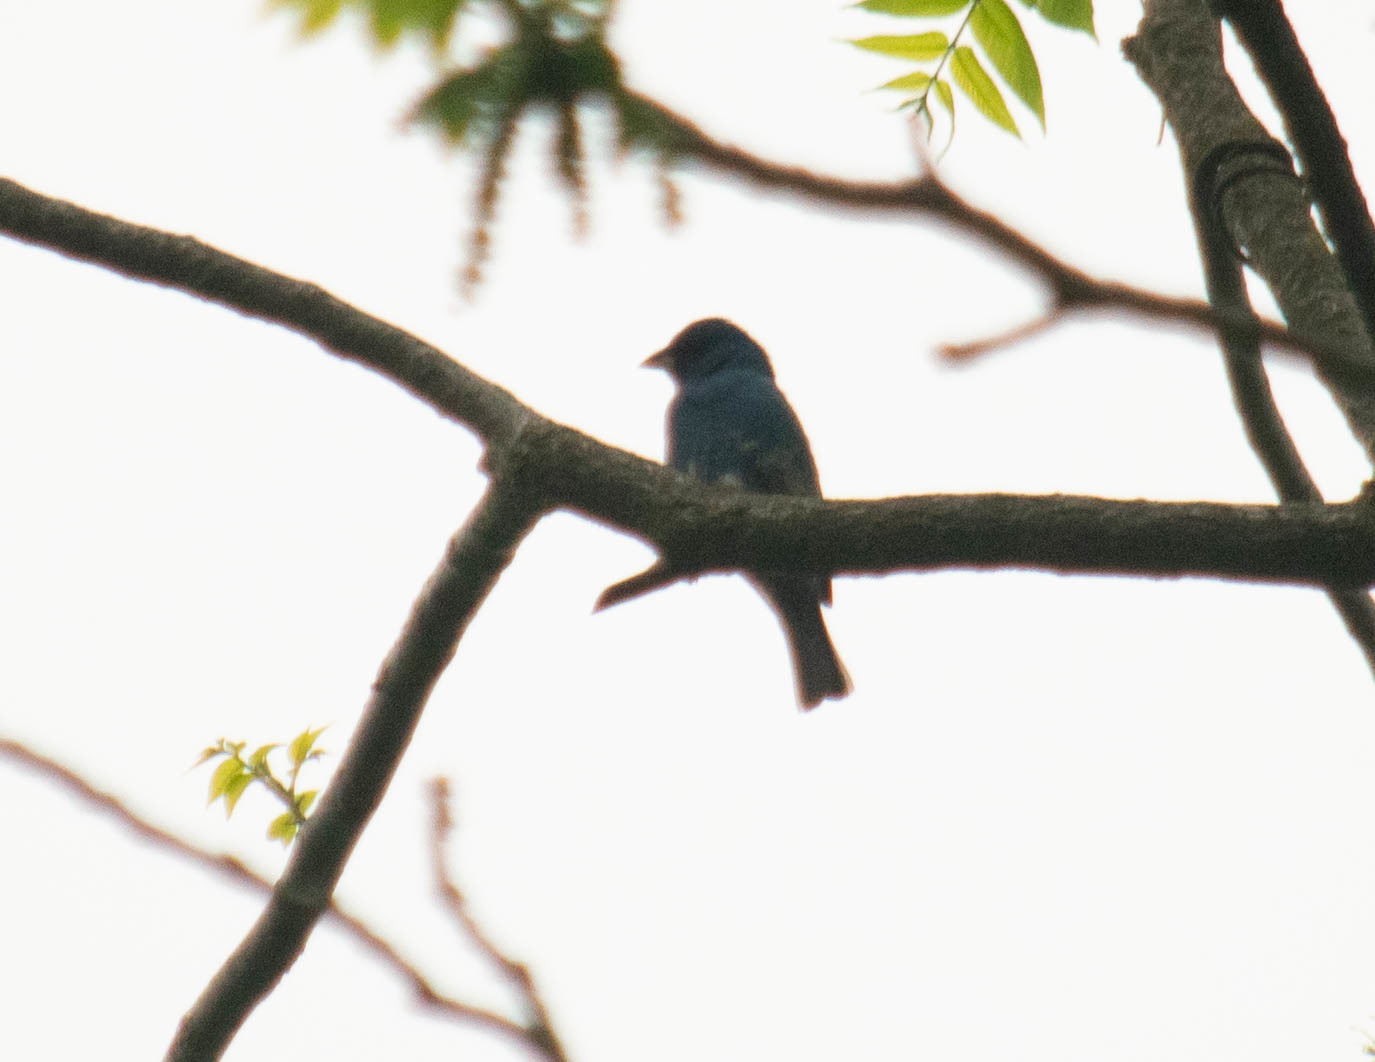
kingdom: Animalia
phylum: Chordata
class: Aves
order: Passeriformes
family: Cardinalidae
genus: Passerina
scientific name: Passerina cyanea
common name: Indigo bunting
